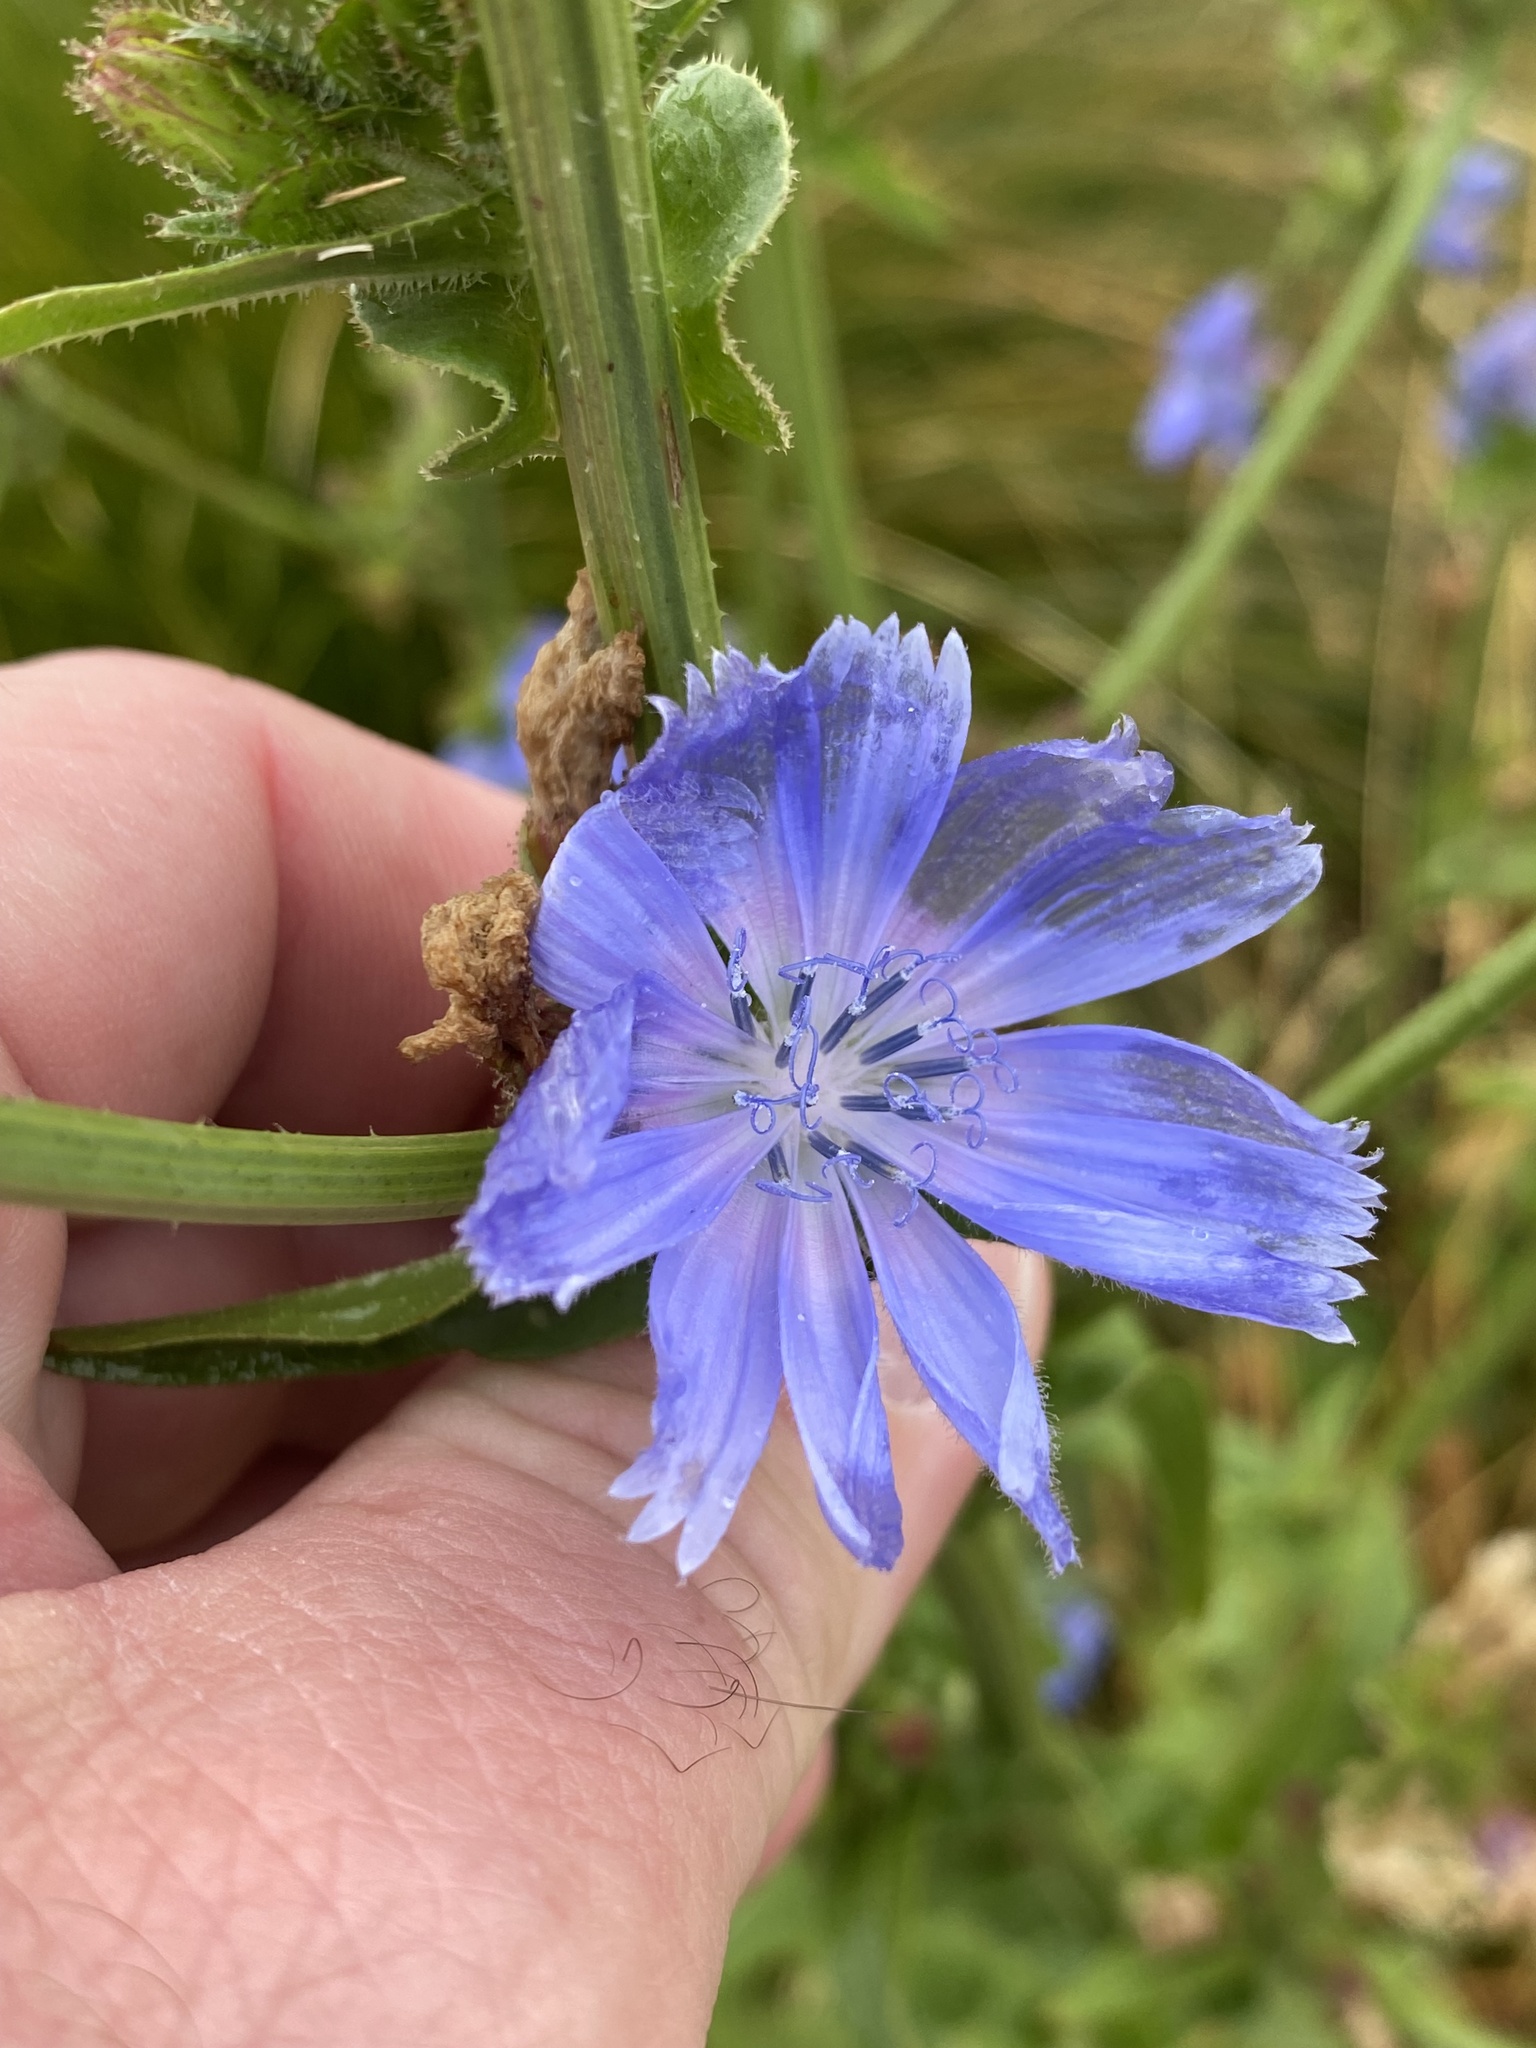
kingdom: Plantae
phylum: Tracheophyta
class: Magnoliopsida
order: Asterales
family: Asteraceae
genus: Cichorium
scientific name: Cichorium intybus
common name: Chicory
